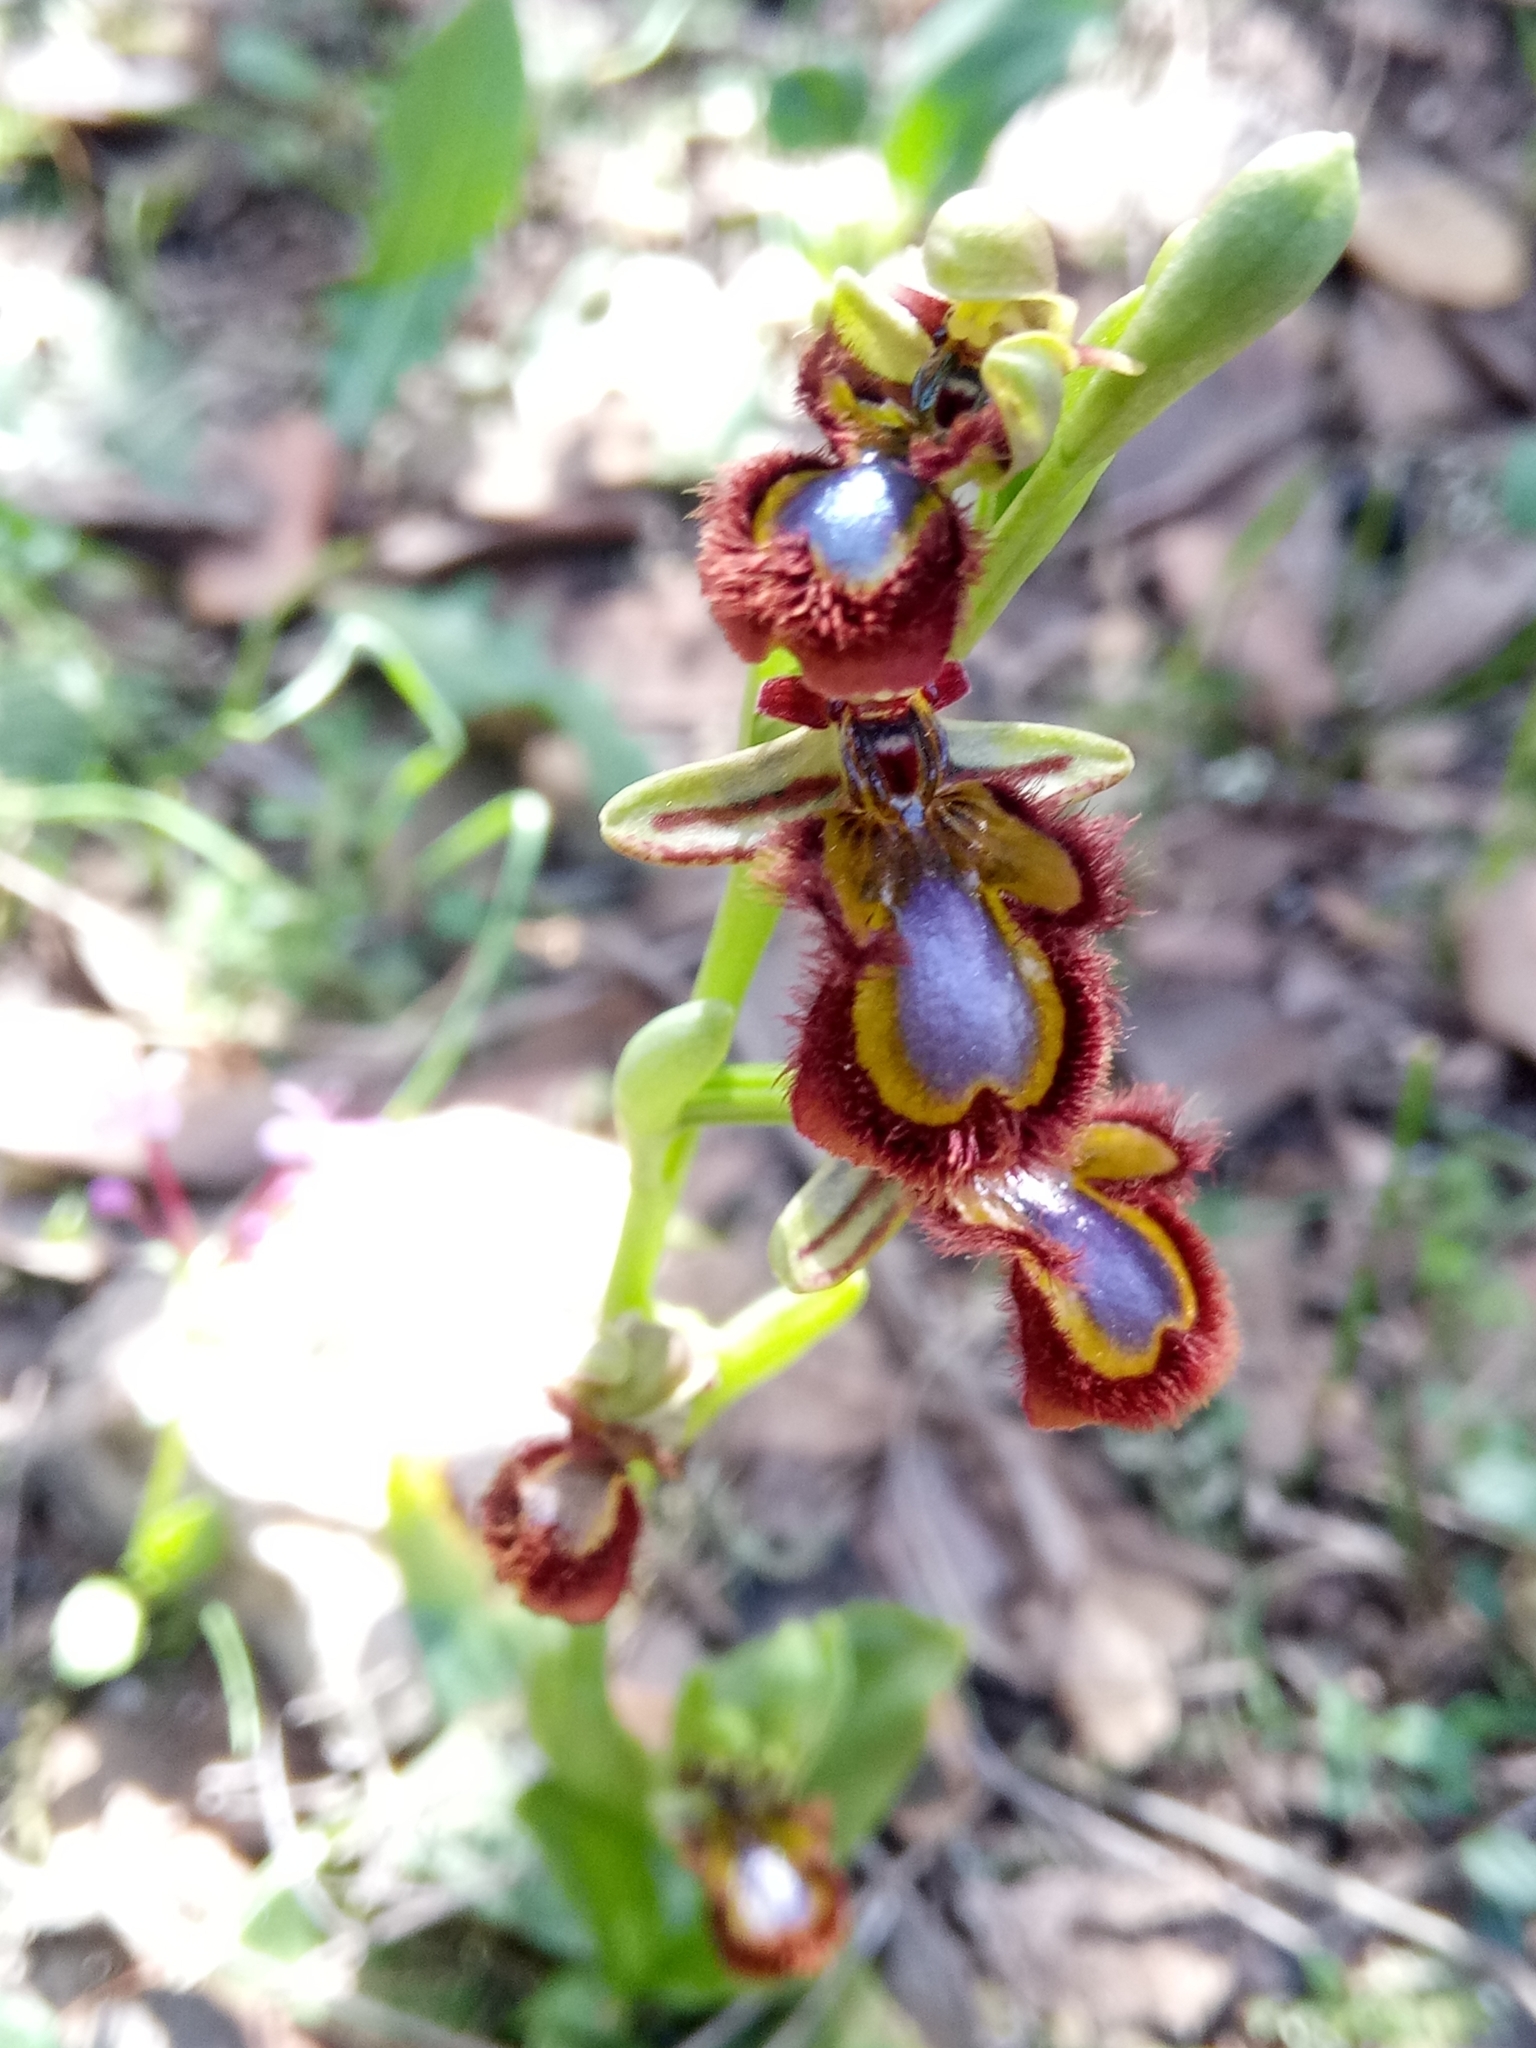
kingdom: Plantae
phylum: Tracheophyta
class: Liliopsida
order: Asparagales
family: Orchidaceae
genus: Ophrys
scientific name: Ophrys speculum
